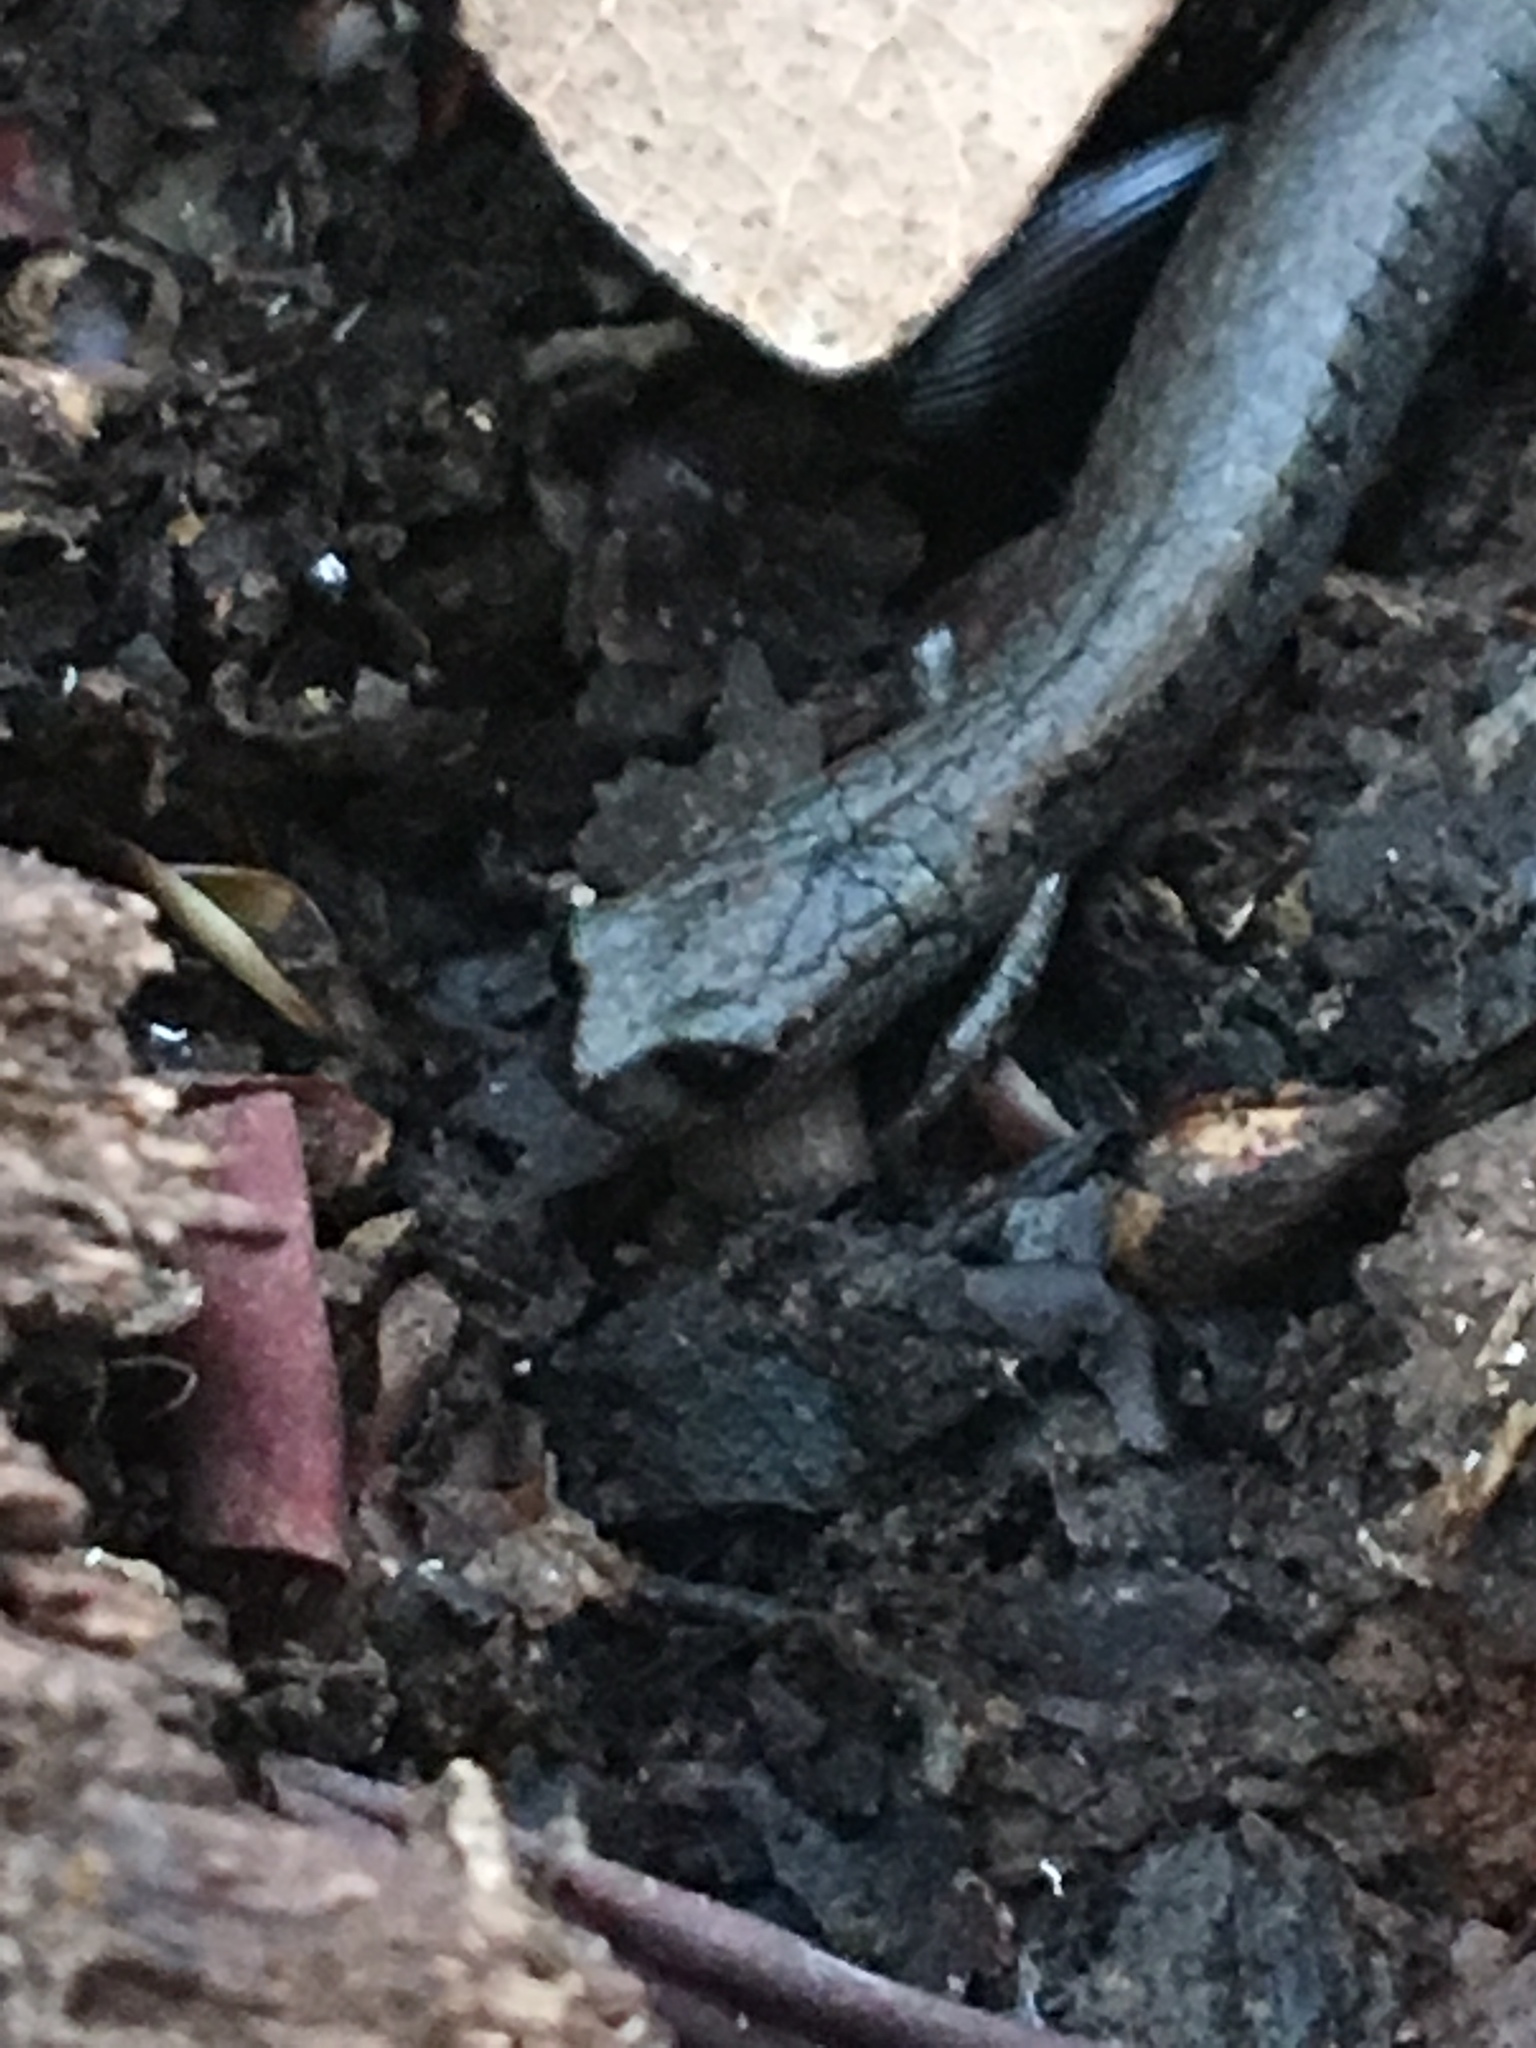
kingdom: Animalia
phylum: Chordata
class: Amphibia
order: Caudata
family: Plethodontidae
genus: Batrachoseps
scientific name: Batrachoseps attenuatus
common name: California slender salamander
